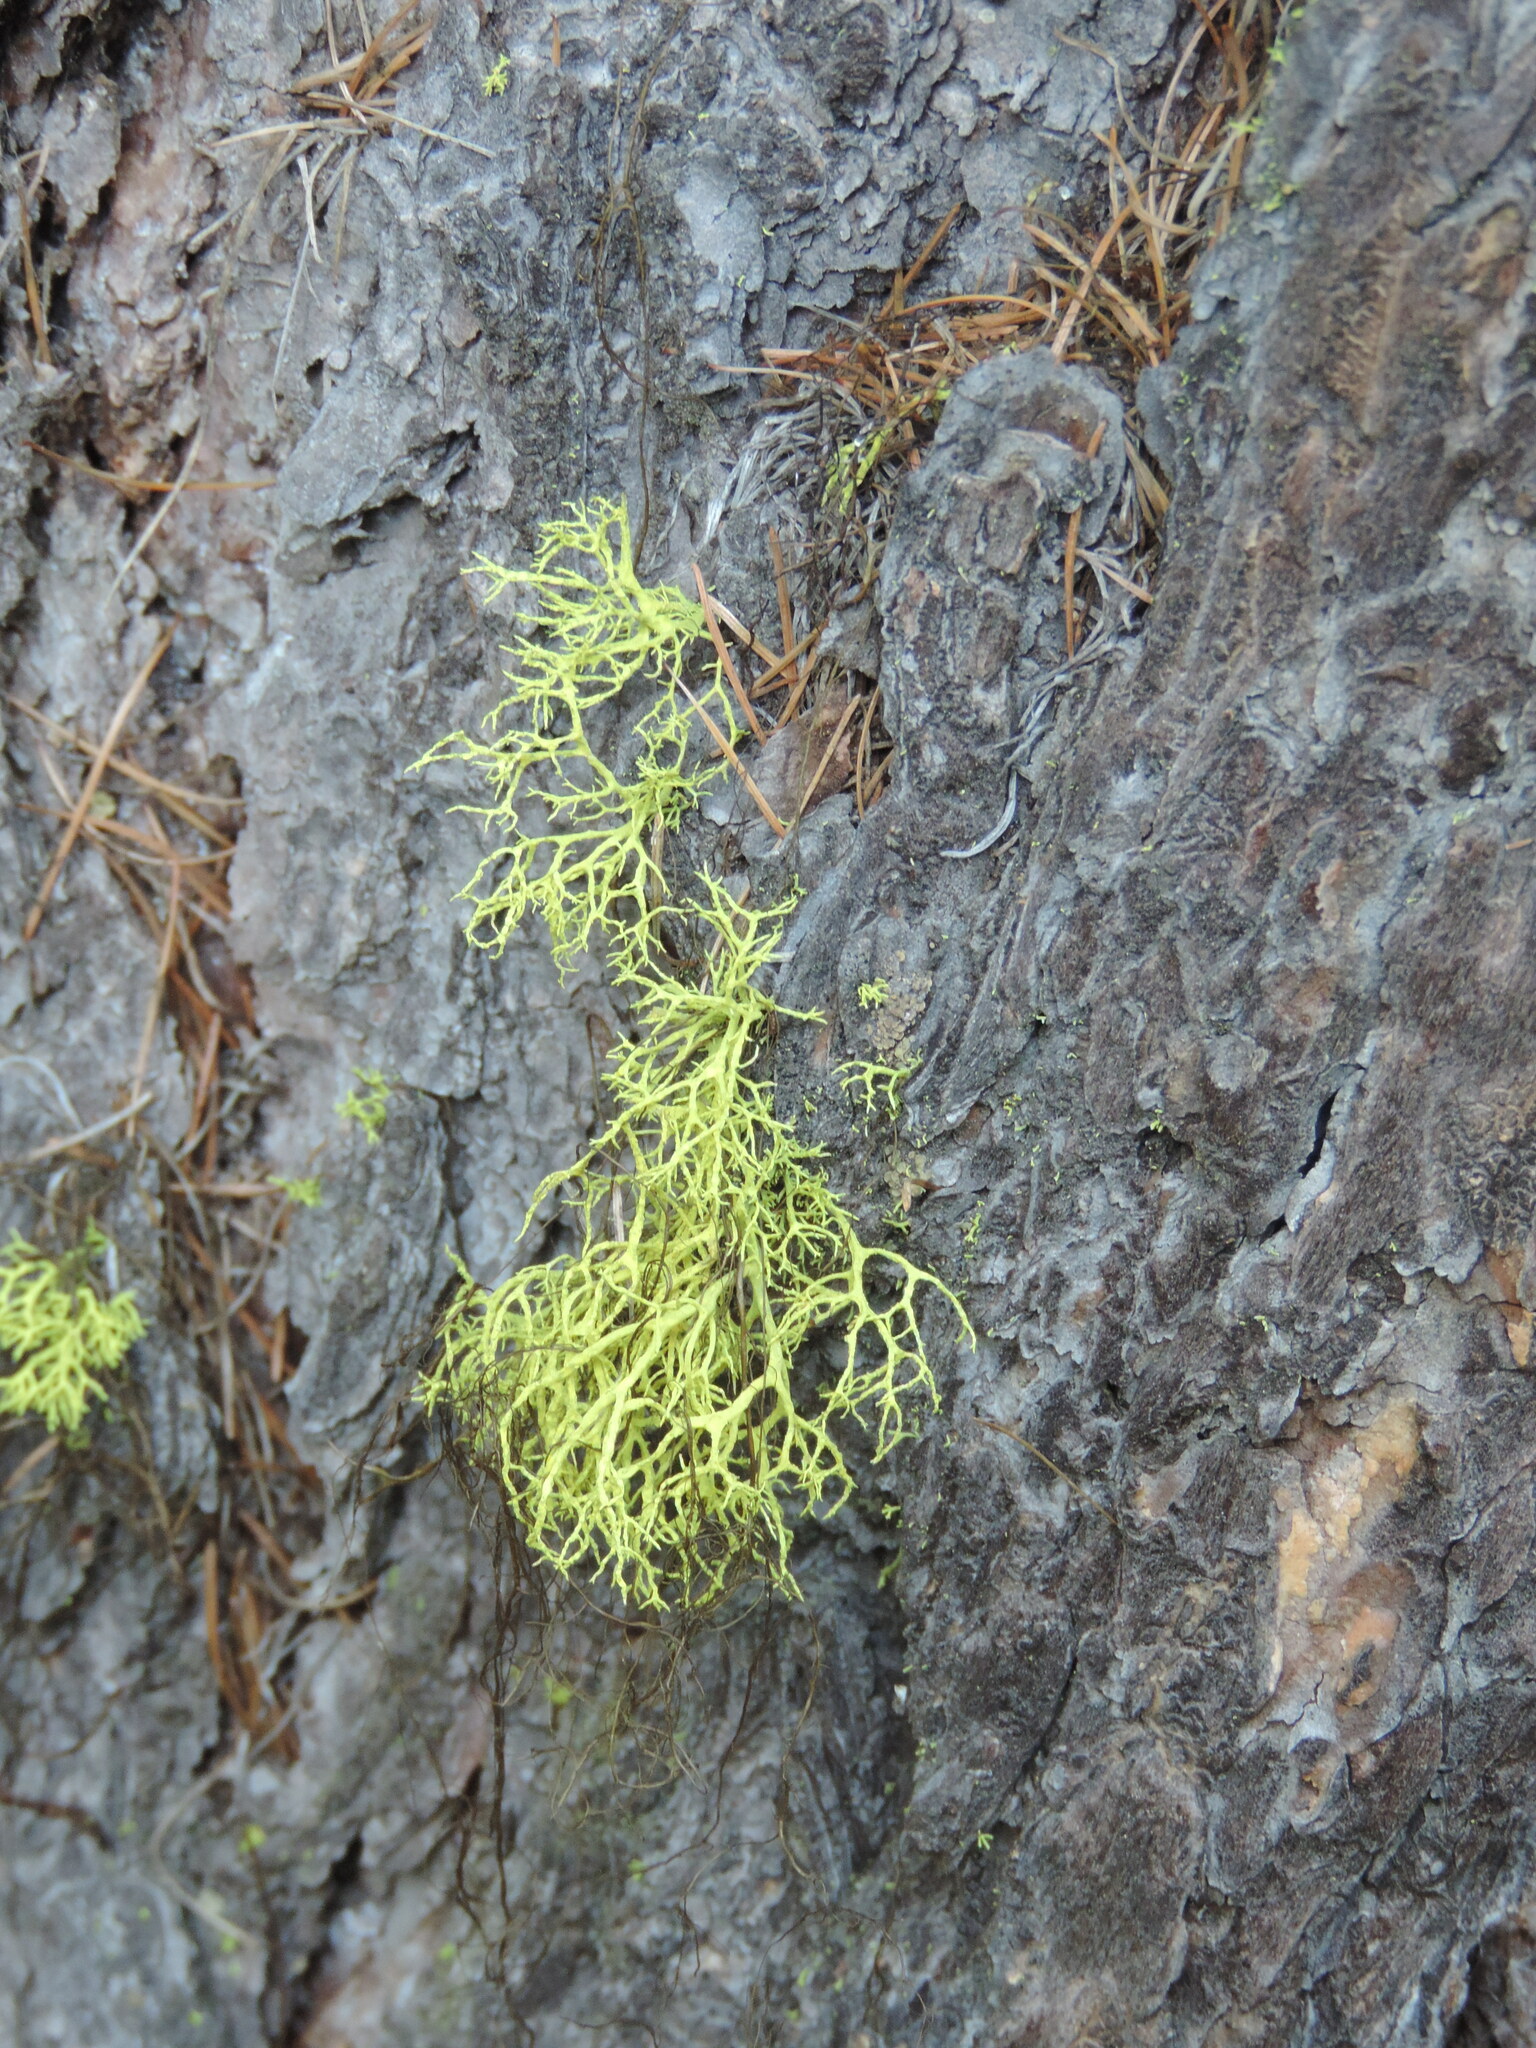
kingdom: Fungi
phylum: Ascomycota
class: Lecanoromycetes
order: Lecanorales
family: Parmeliaceae
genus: Letharia
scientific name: Letharia vulpina
